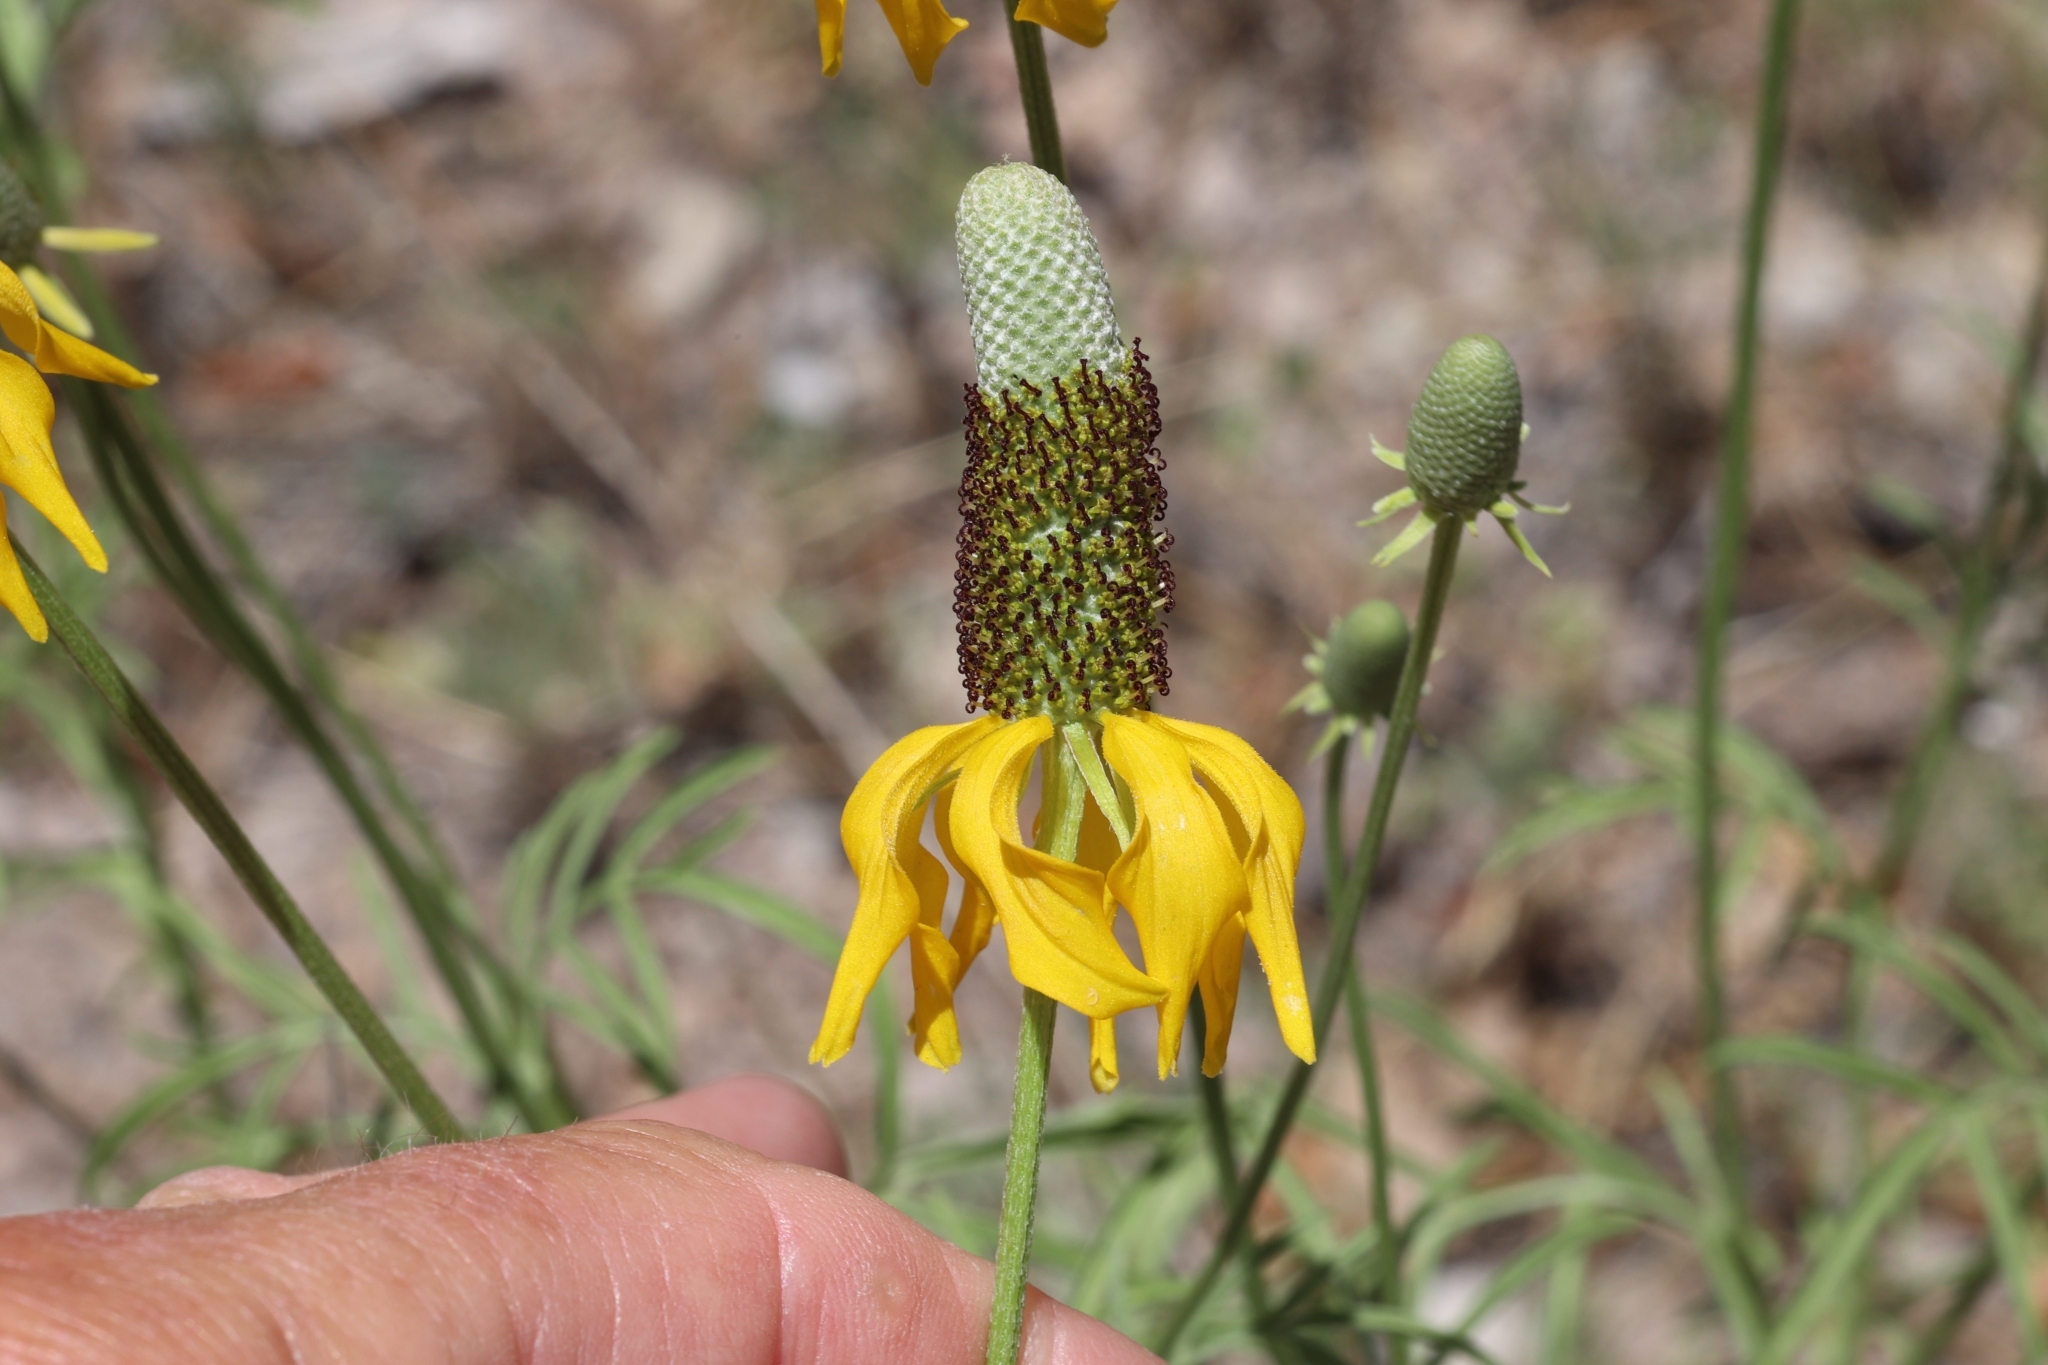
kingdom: Plantae
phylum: Tracheophyta
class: Magnoliopsida
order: Asterales
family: Asteraceae
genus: Ratibida
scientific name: Ratibida columnifera
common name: Prairie coneflower
